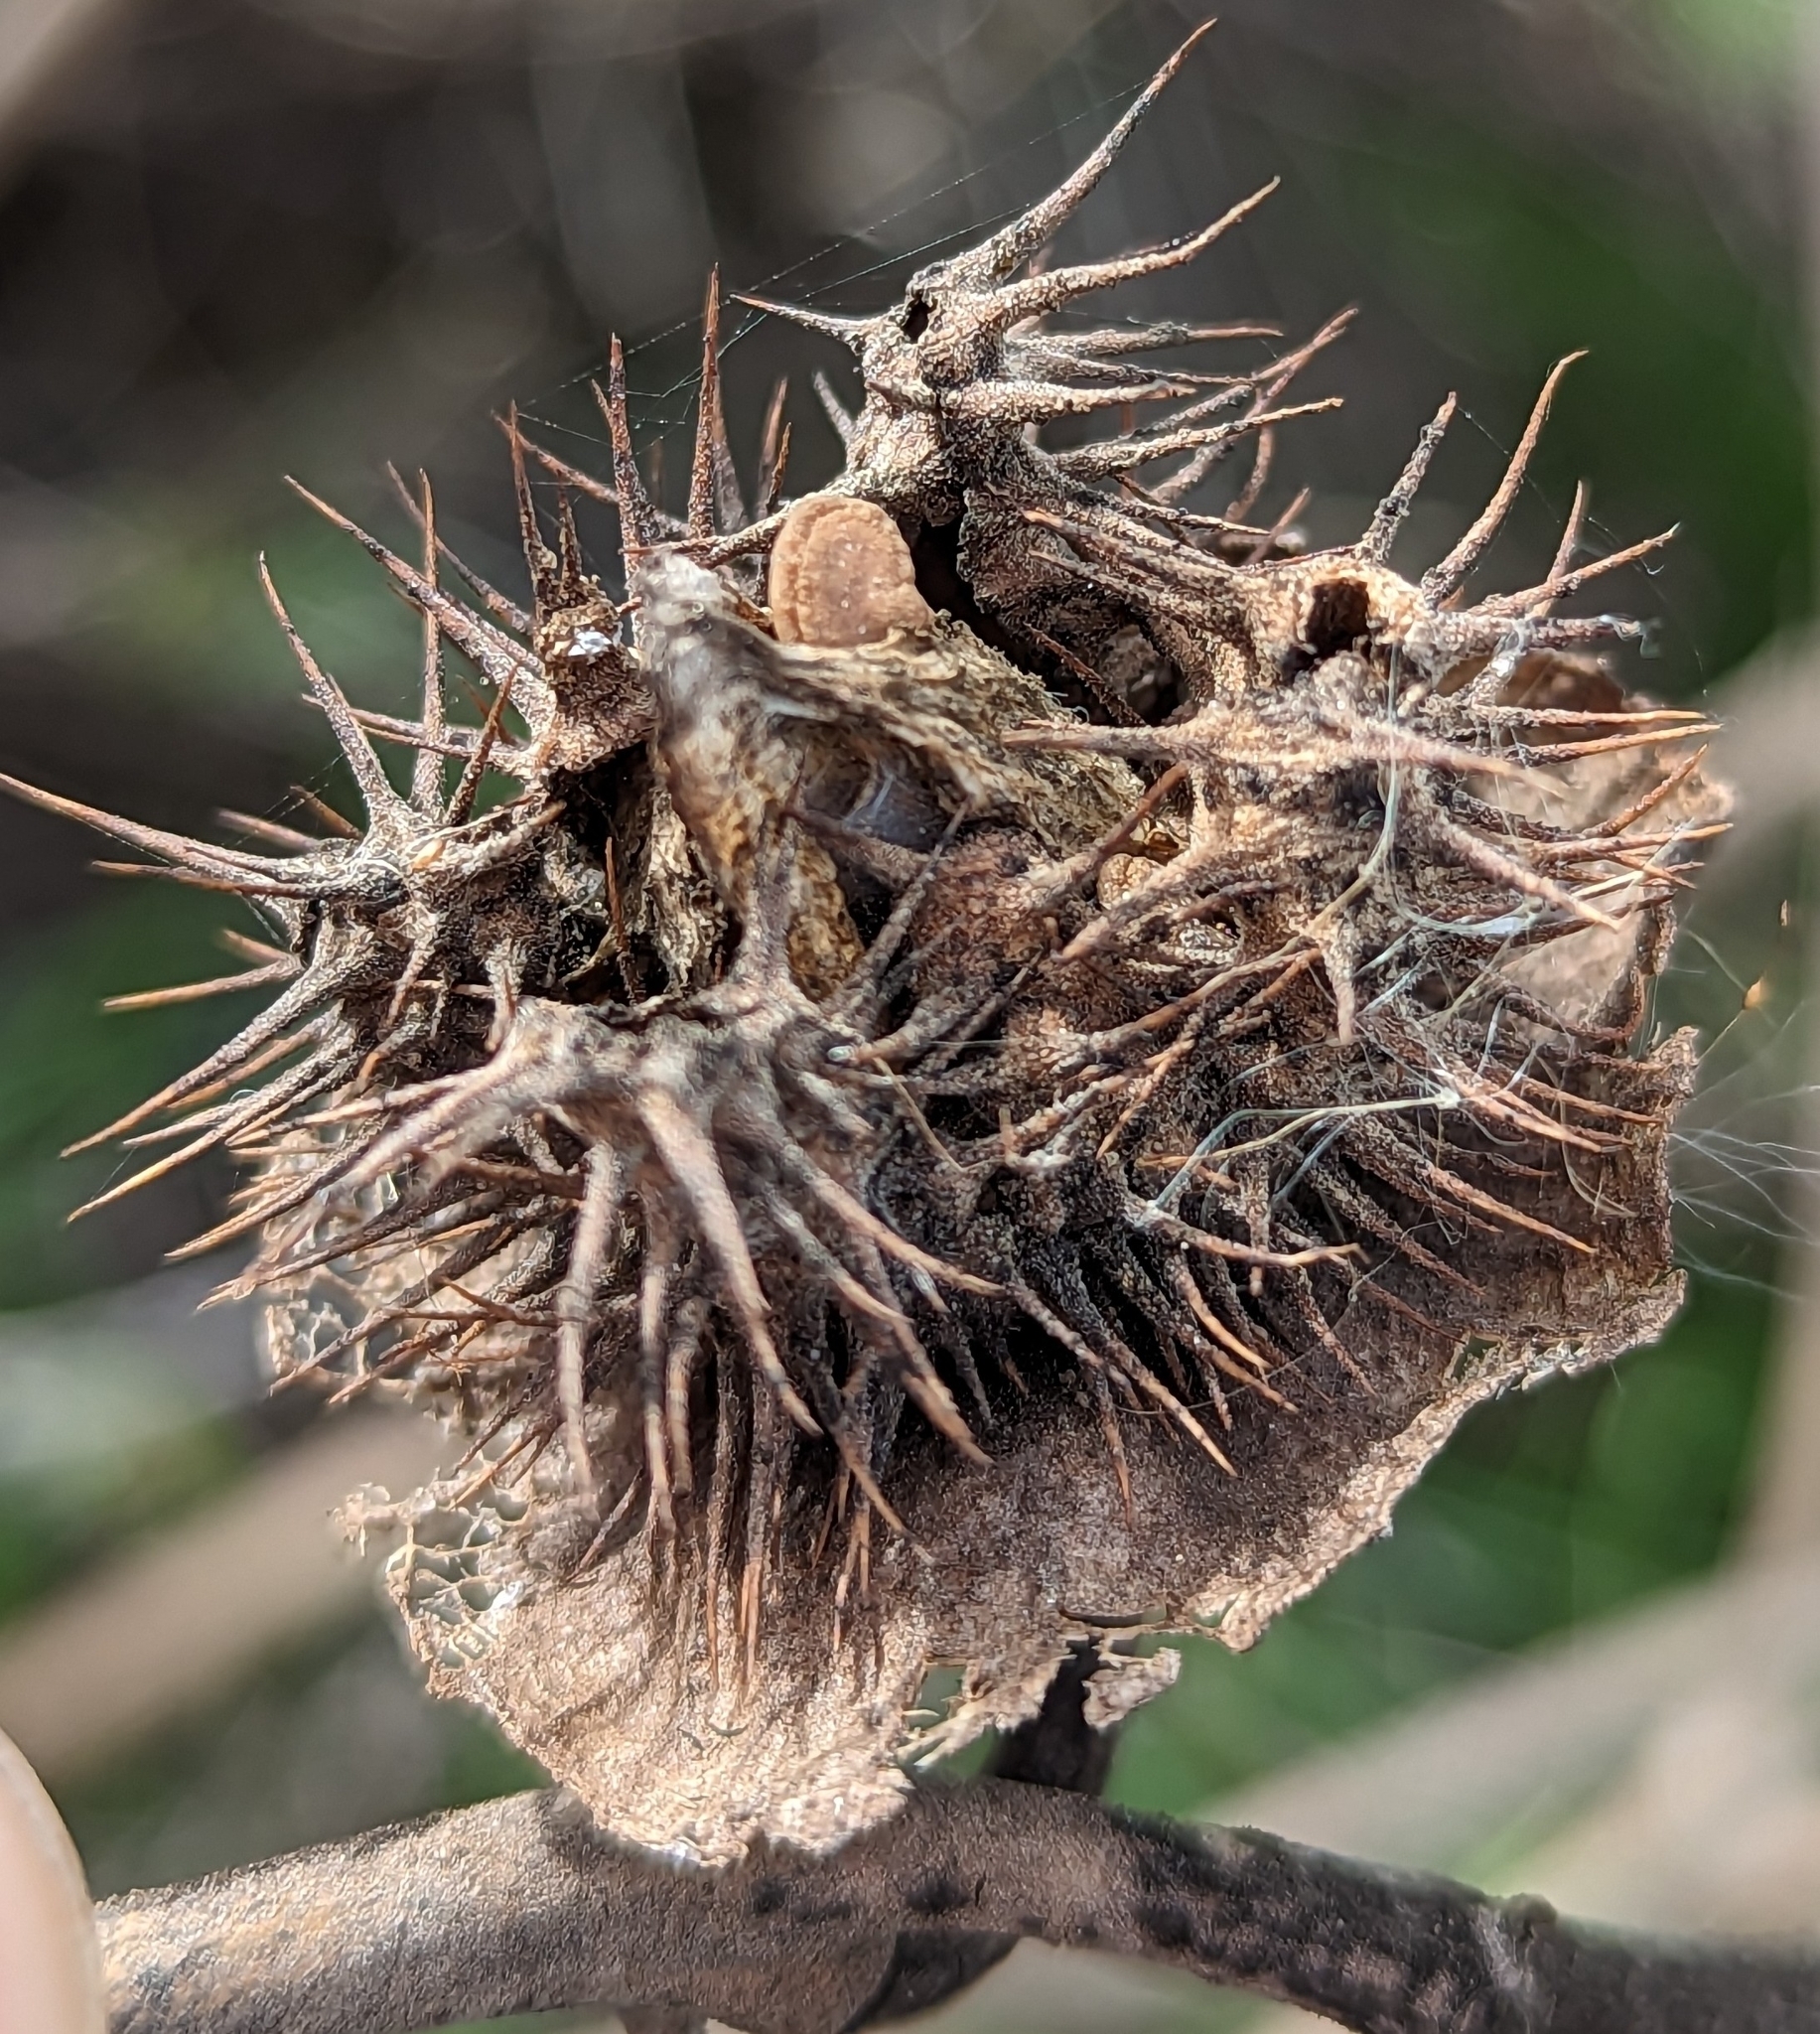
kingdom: Plantae
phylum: Tracheophyta
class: Magnoliopsida
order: Solanales
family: Solanaceae
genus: Datura
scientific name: Datura wrightii
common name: Sacred thorn-apple
